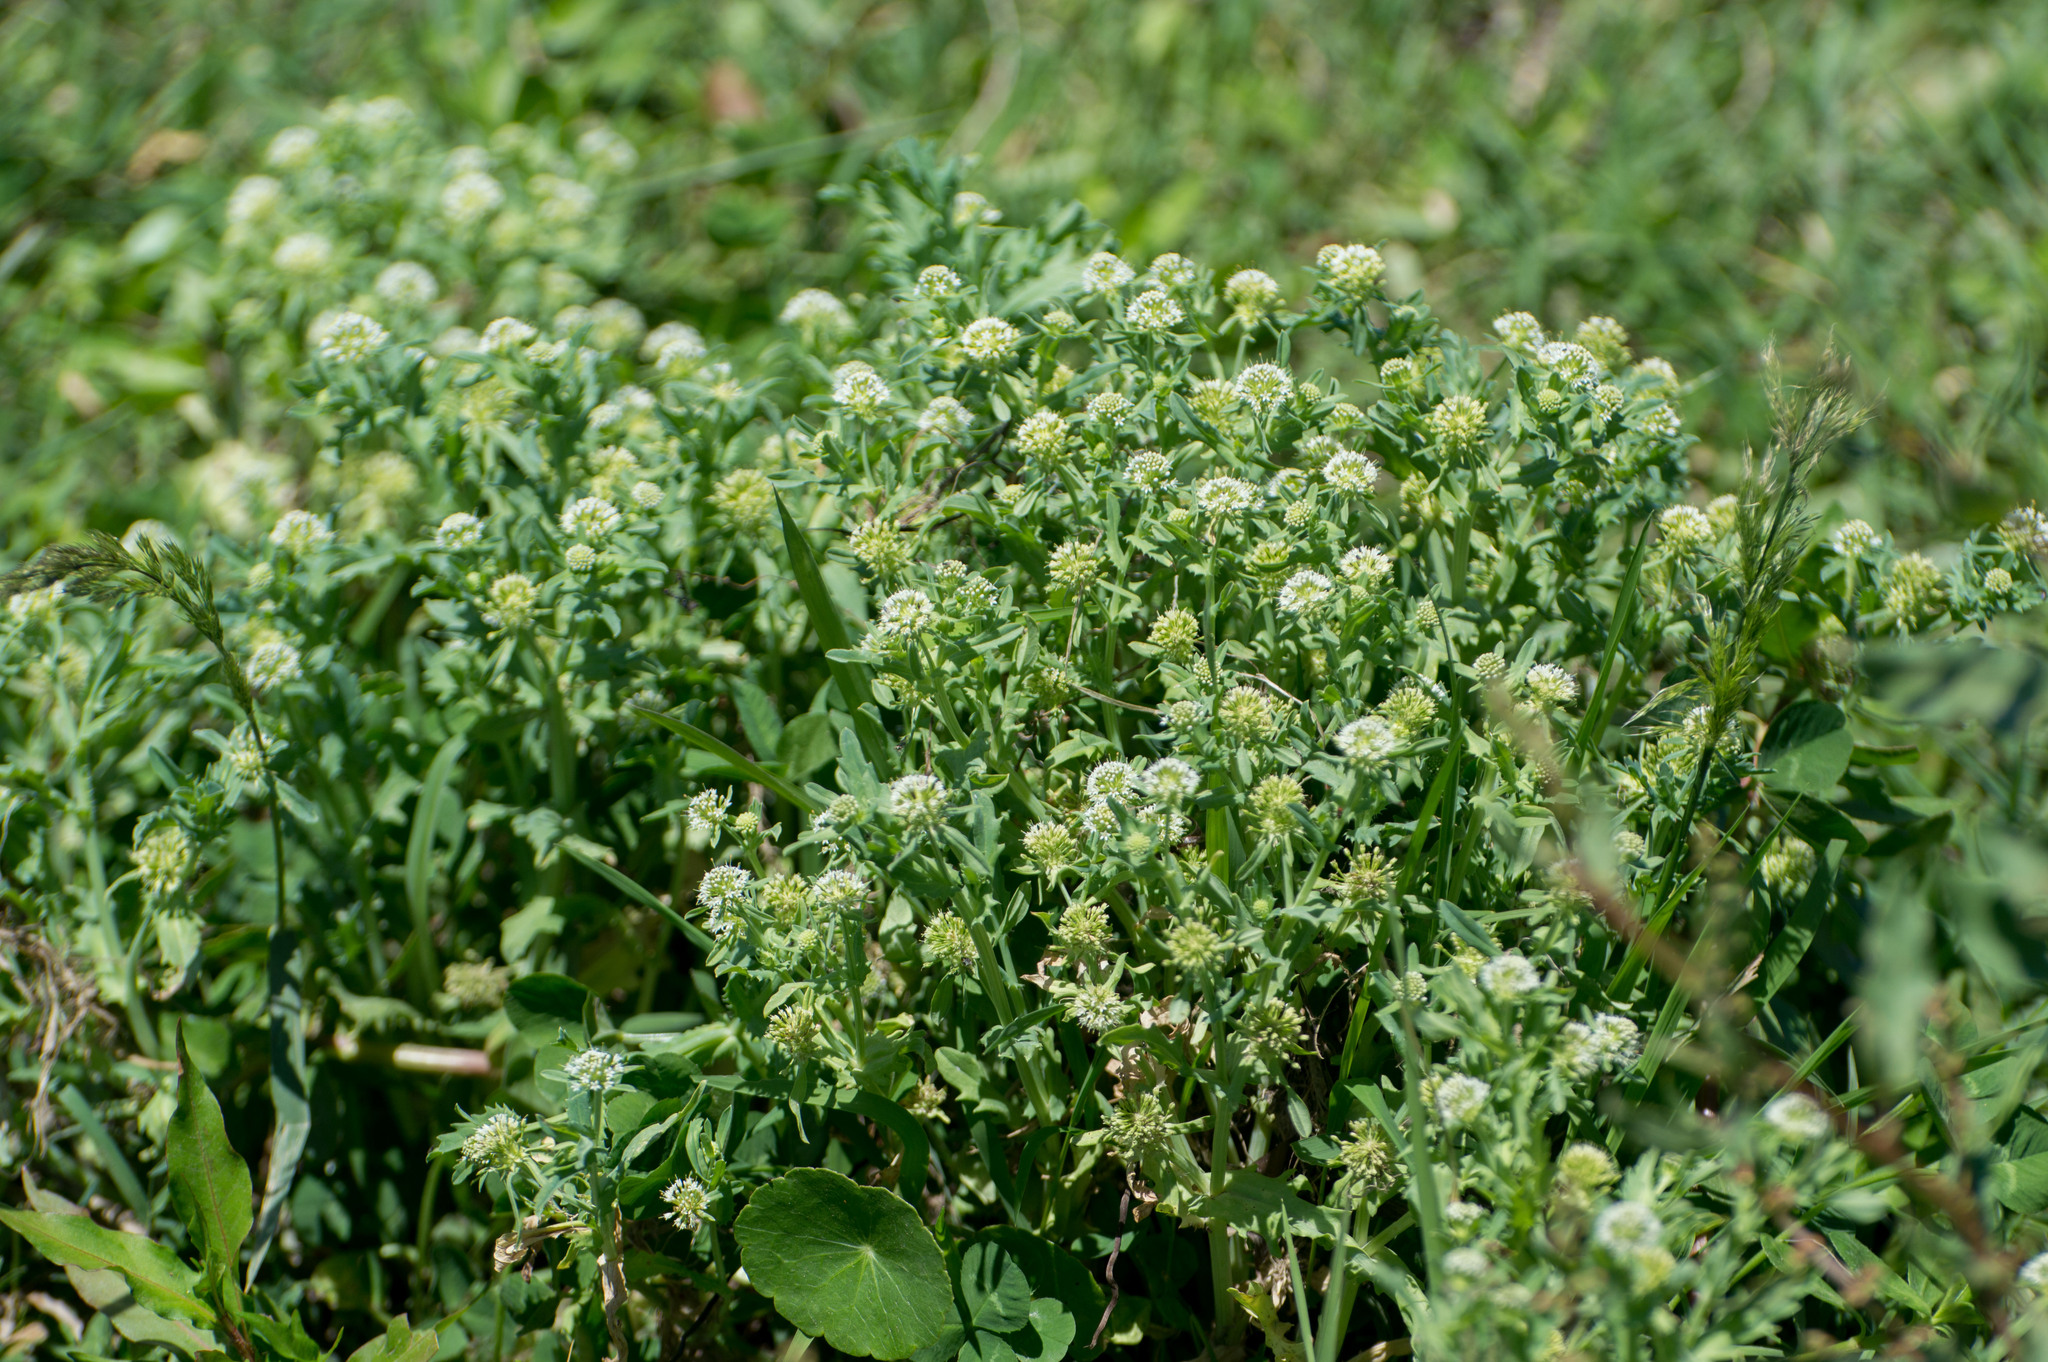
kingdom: Plantae
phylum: Tracheophyta
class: Magnoliopsida
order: Asterales
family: Calyceraceae
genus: Acicarpha
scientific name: Acicarpha tribuloides
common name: Madam gorgon
